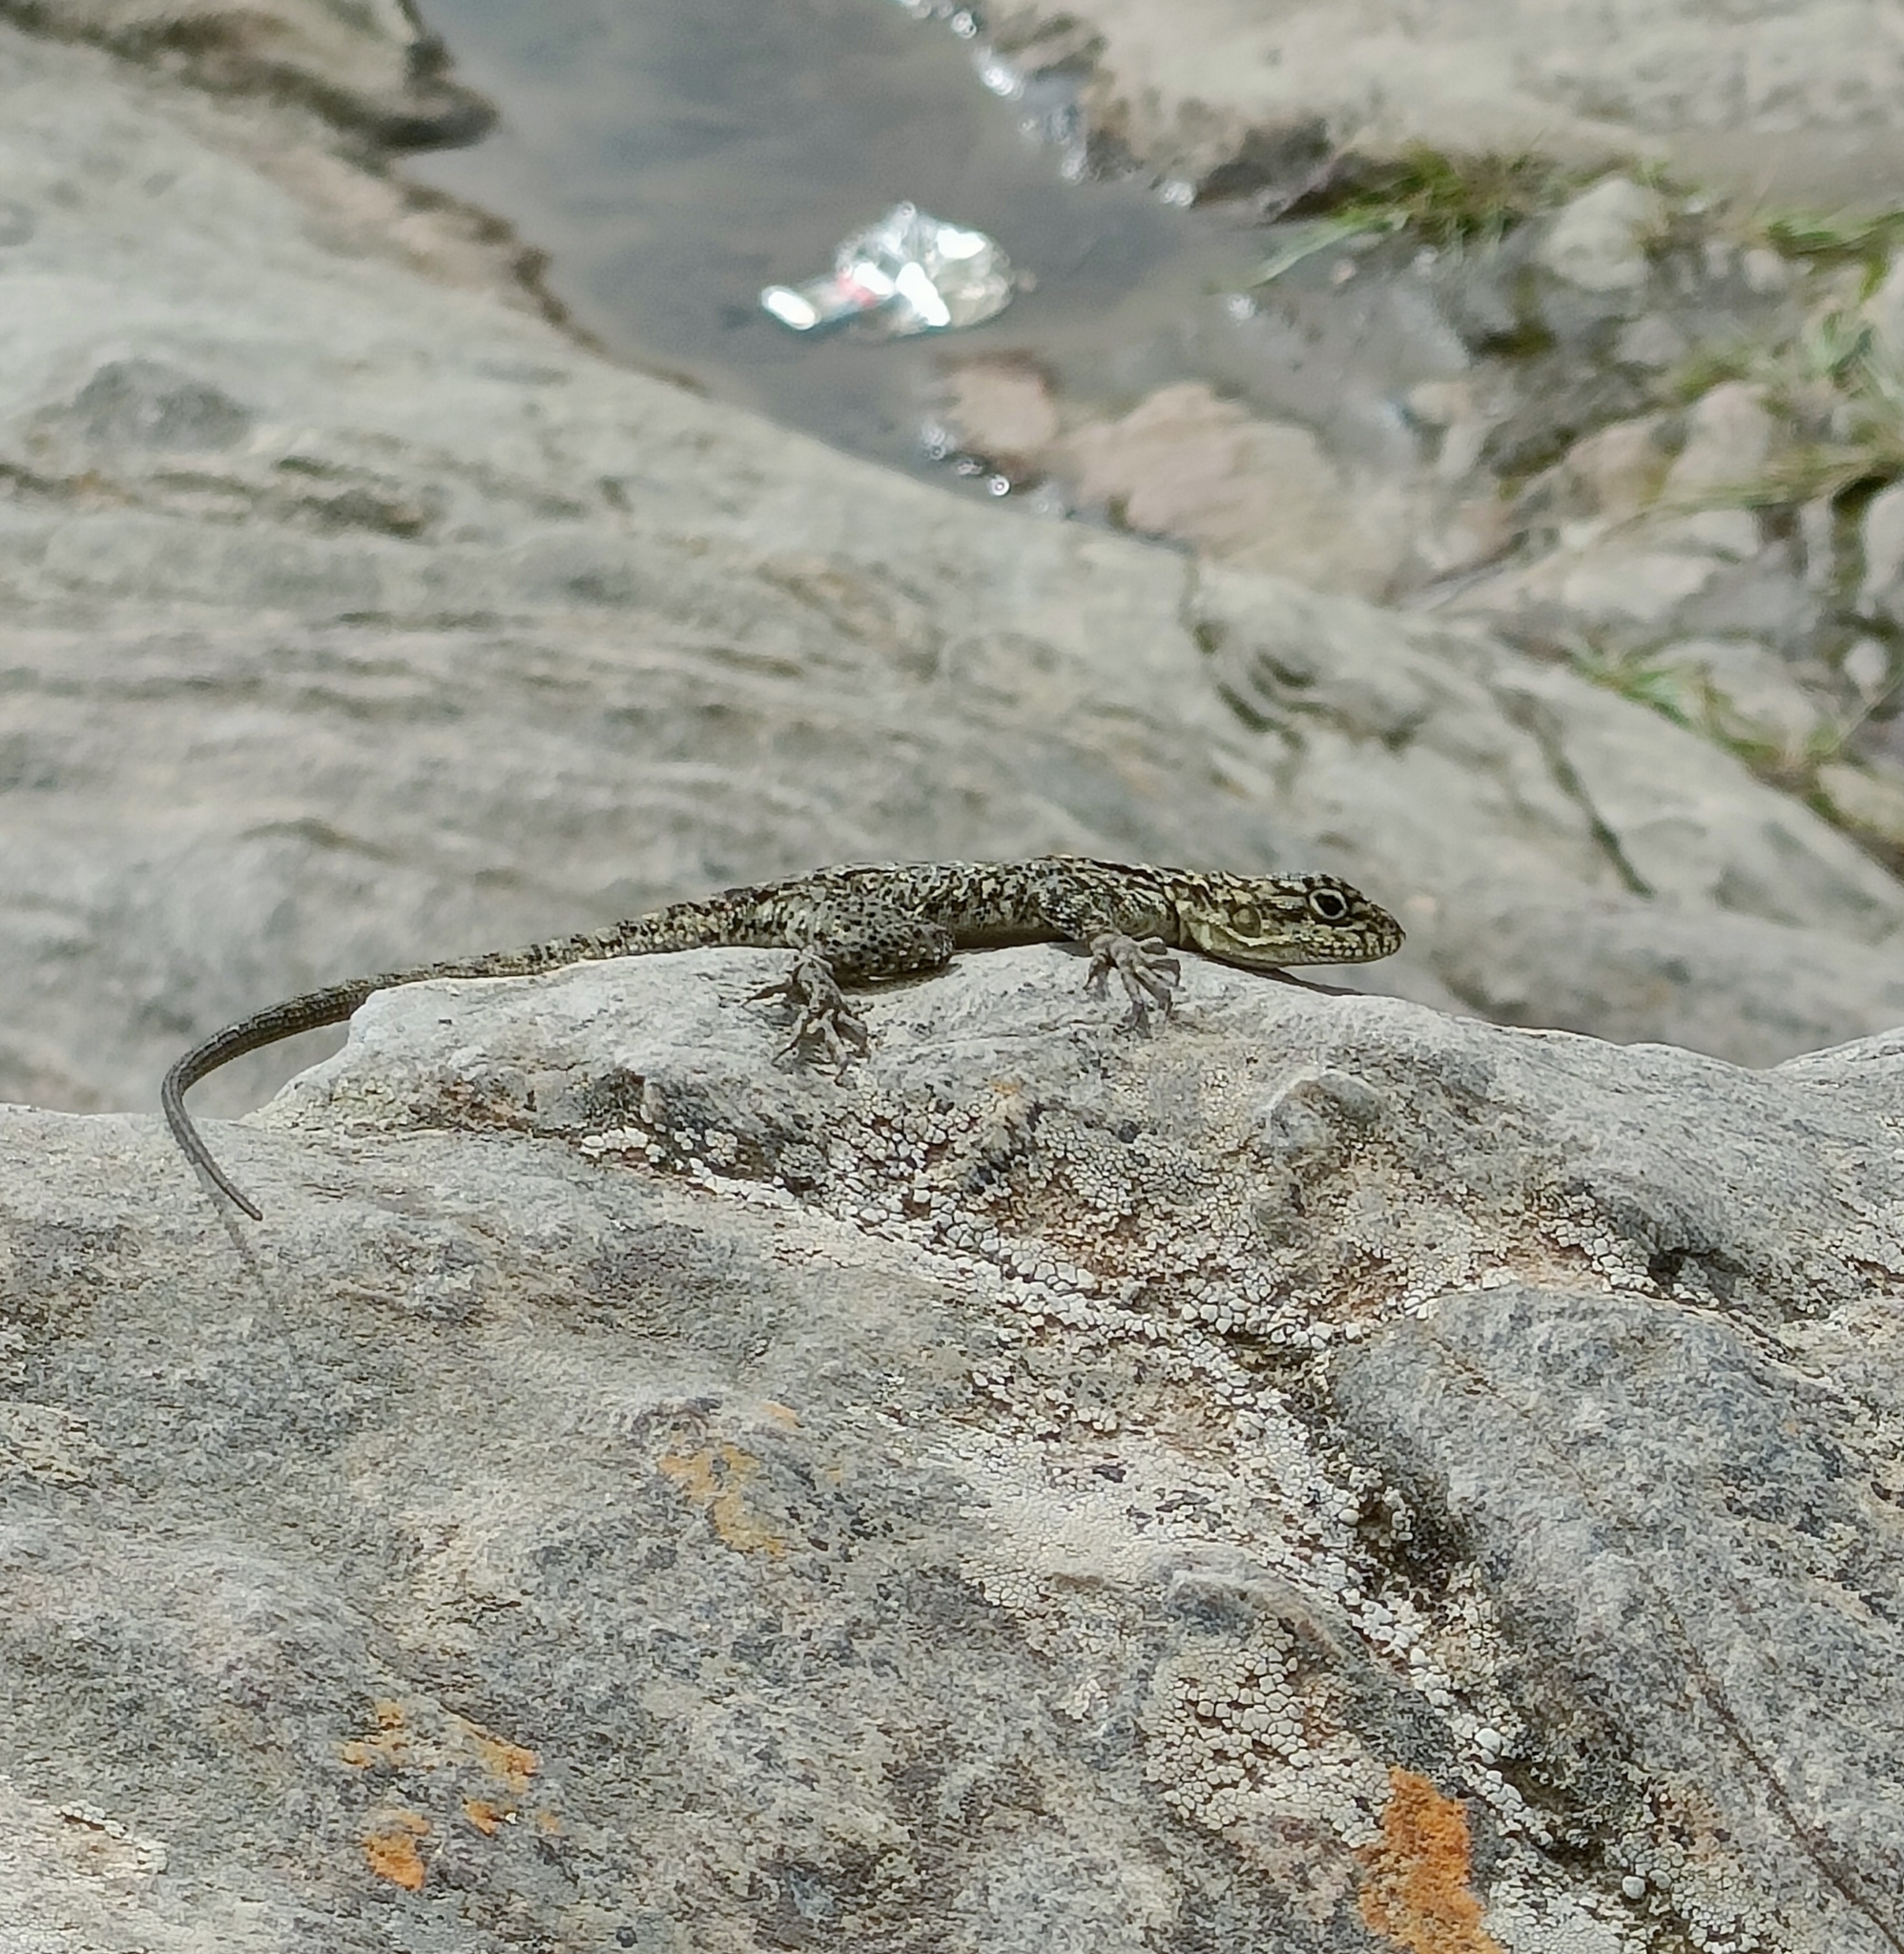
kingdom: Animalia
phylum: Chordata
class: Squamata
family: Agamidae
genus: Laudakia
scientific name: Laudakia tuberculata
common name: Kashmir rock agama
